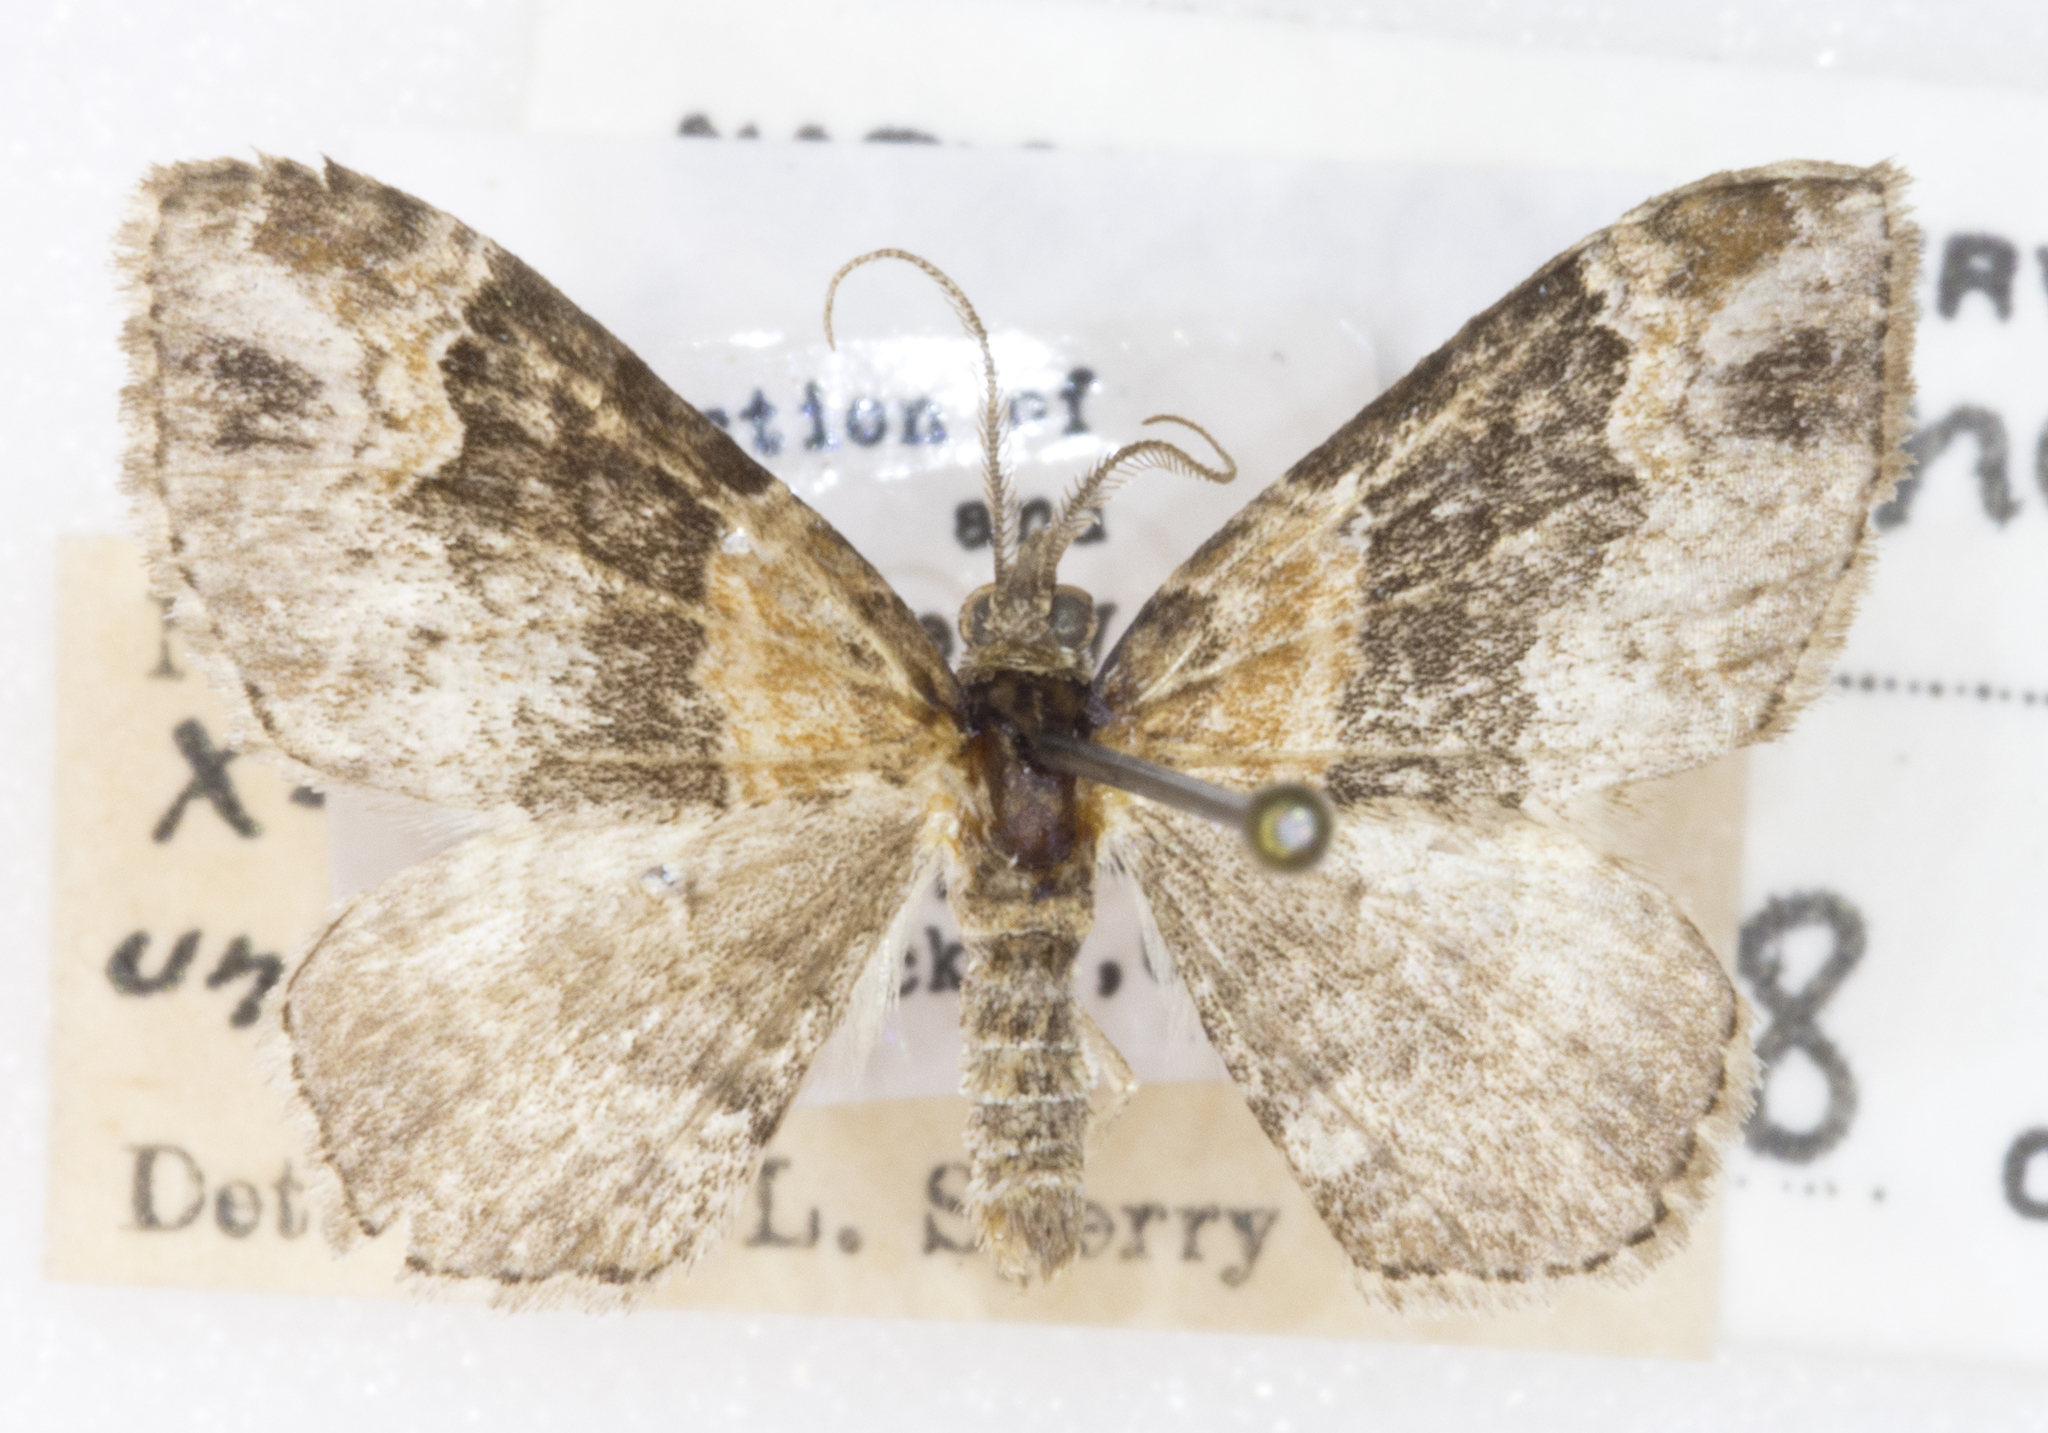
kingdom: Animalia
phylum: Arthropoda
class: Insecta
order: Lepidoptera
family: Geometridae
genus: Xanthorhoe
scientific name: Xanthorhoe ferrugata
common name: Dark-barred twin-spot carpet
